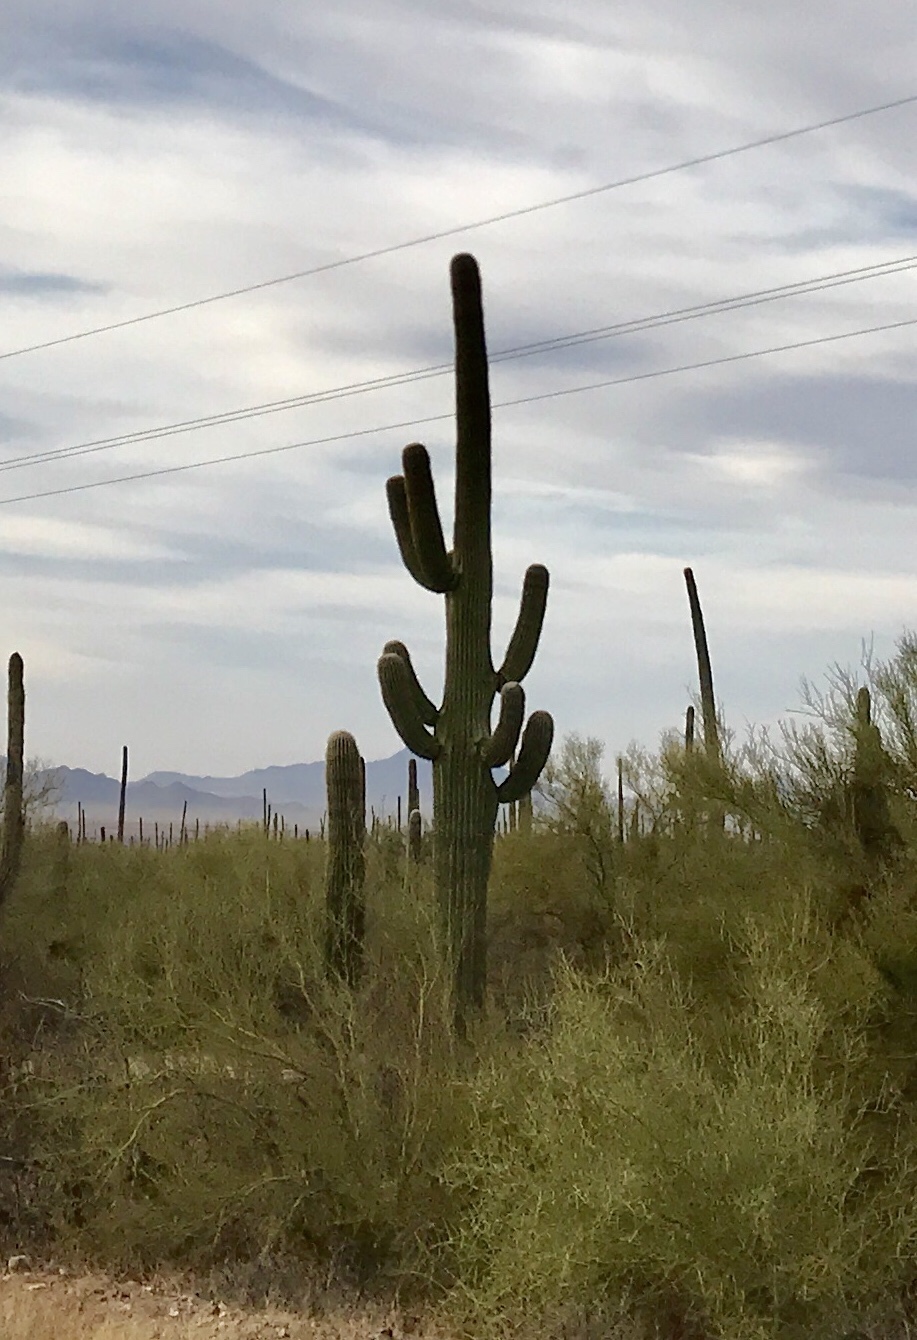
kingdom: Plantae
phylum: Tracheophyta
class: Magnoliopsida
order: Caryophyllales
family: Cactaceae
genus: Carnegiea
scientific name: Carnegiea gigantea
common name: Saguaro
